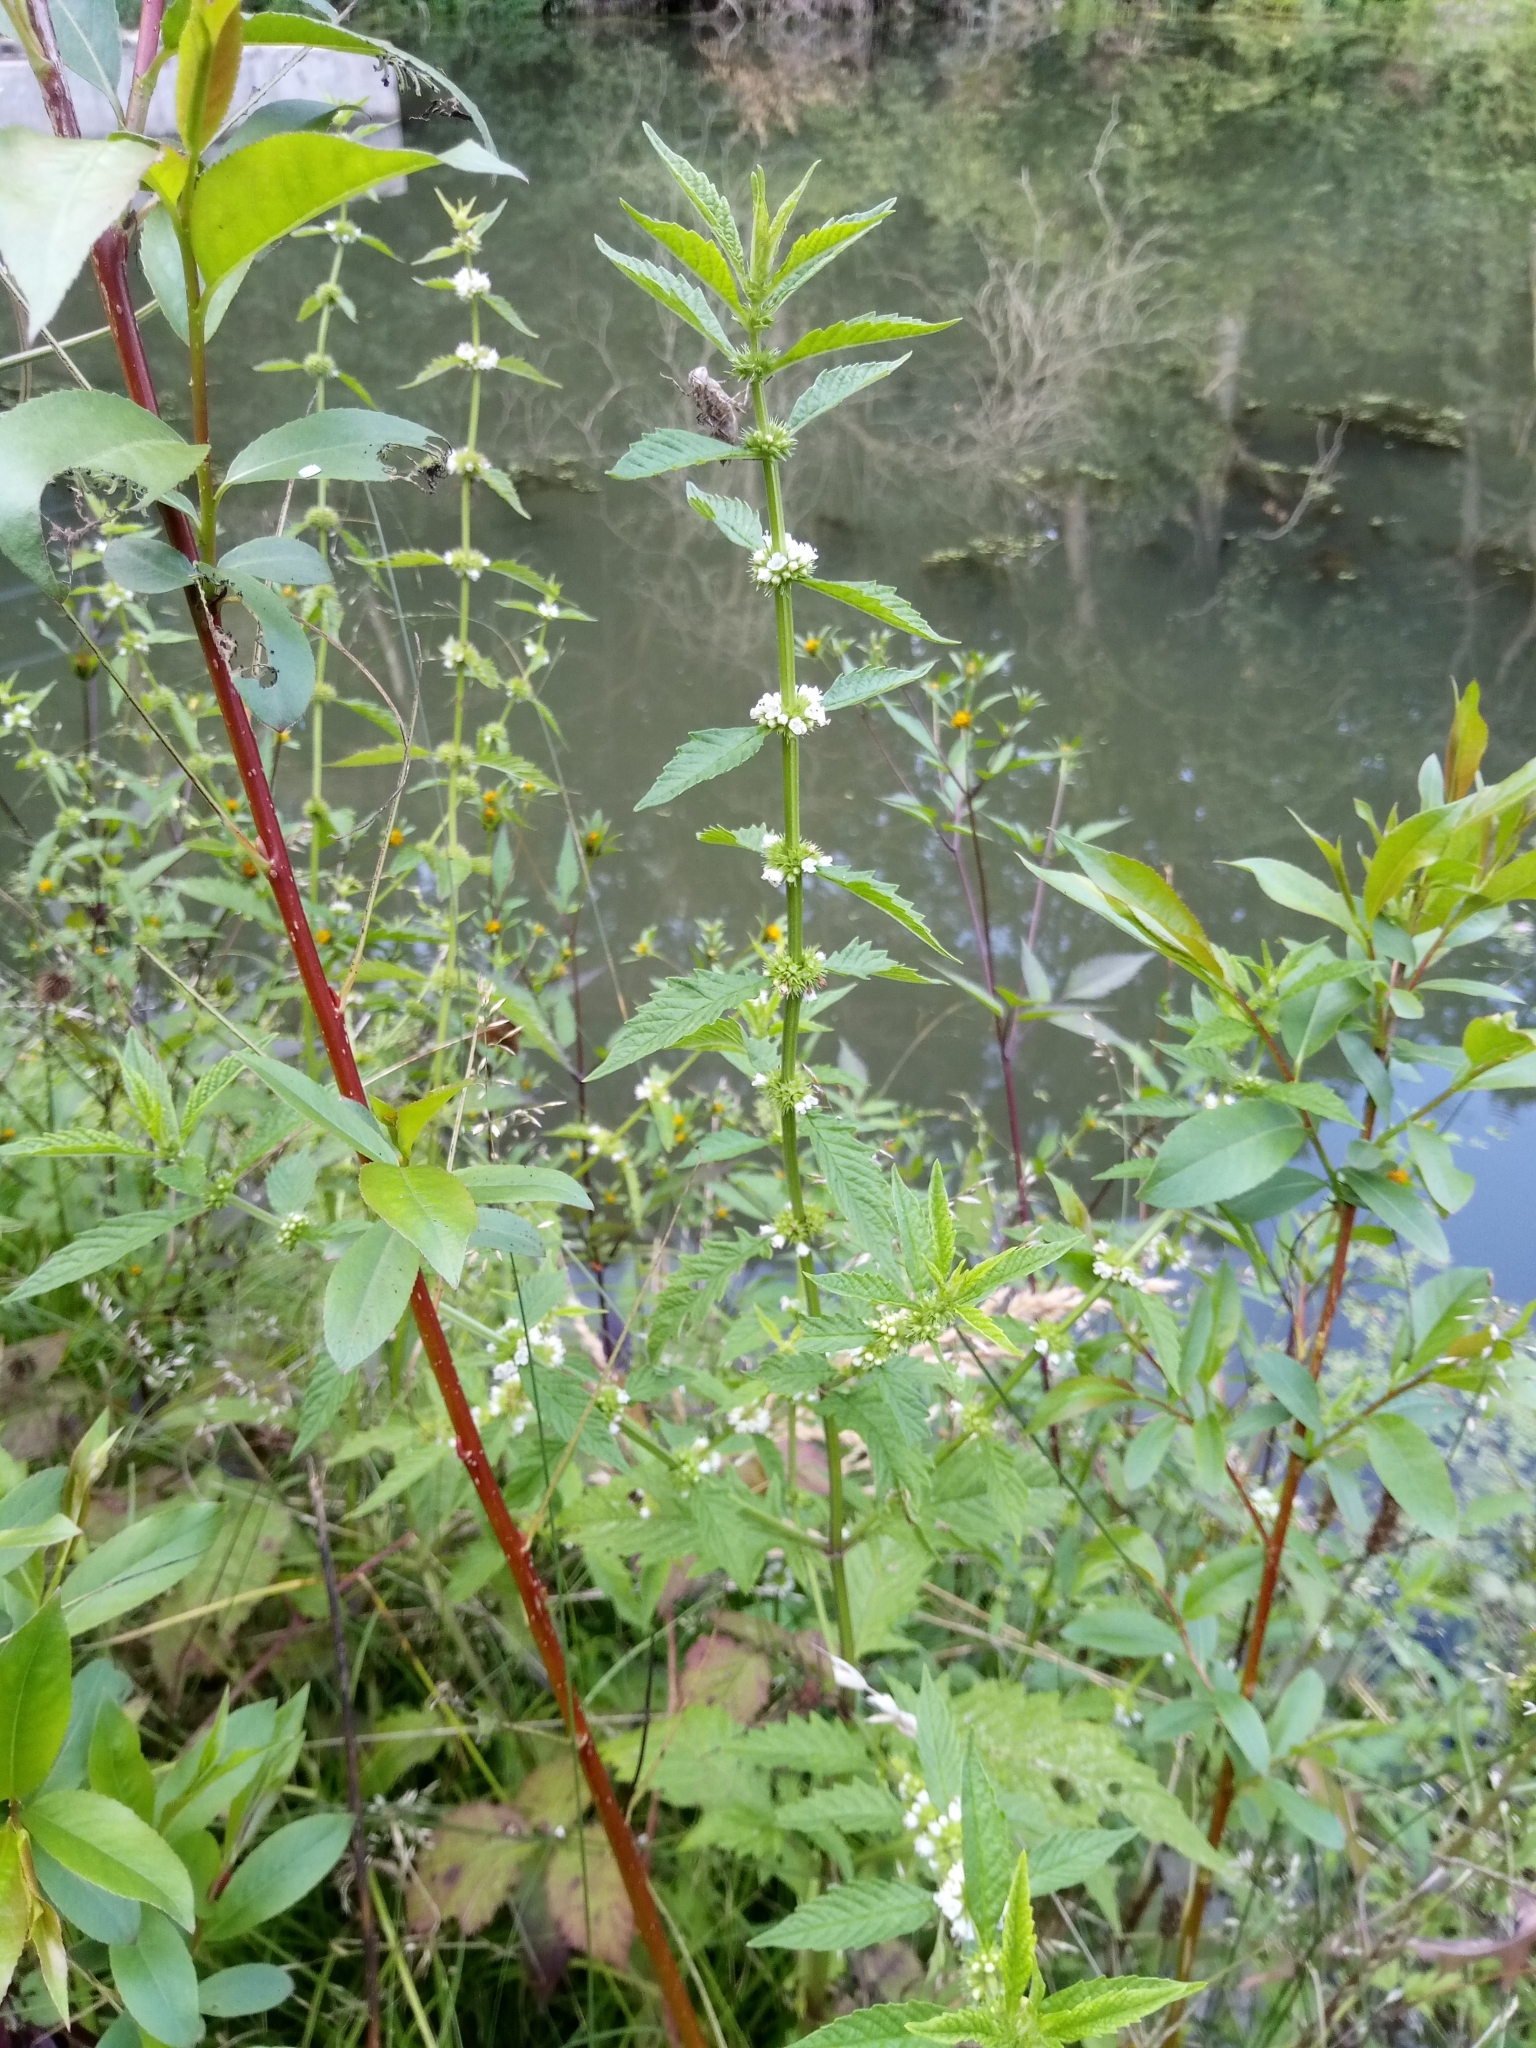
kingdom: Plantae
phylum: Tracheophyta
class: Magnoliopsida
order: Lamiales
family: Lamiaceae
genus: Lycopus
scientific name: Lycopus europaeus
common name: European bugleweed
